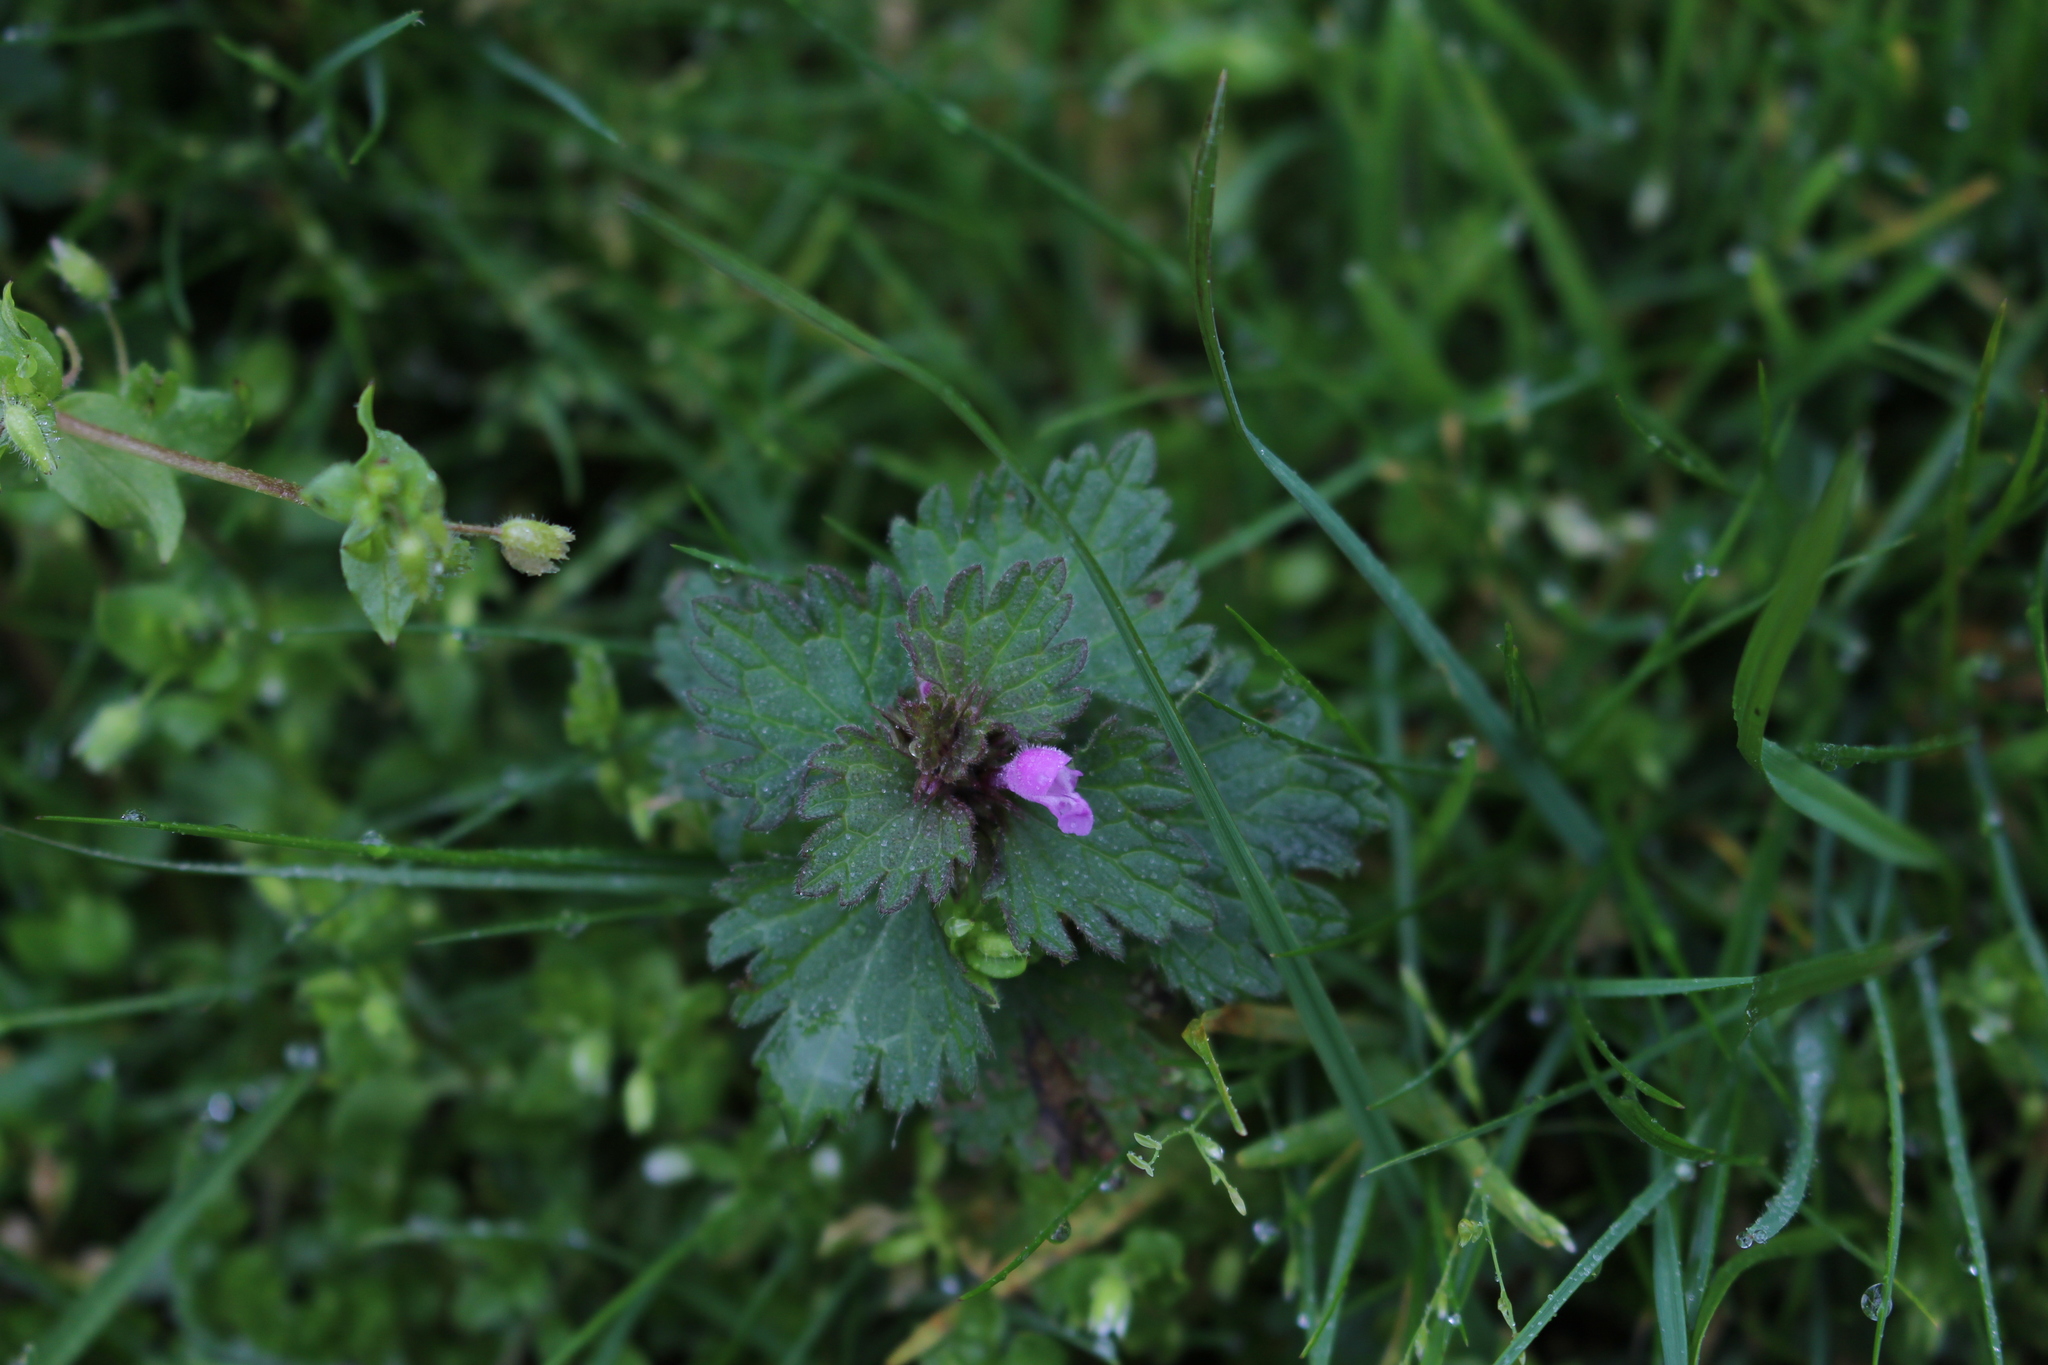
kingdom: Plantae
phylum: Tracheophyta
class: Magnoliopsida
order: Lamiales
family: Lamiaceae
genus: Lamium
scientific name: Lamium hybridum
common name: Cut-leaved dead-nettle
